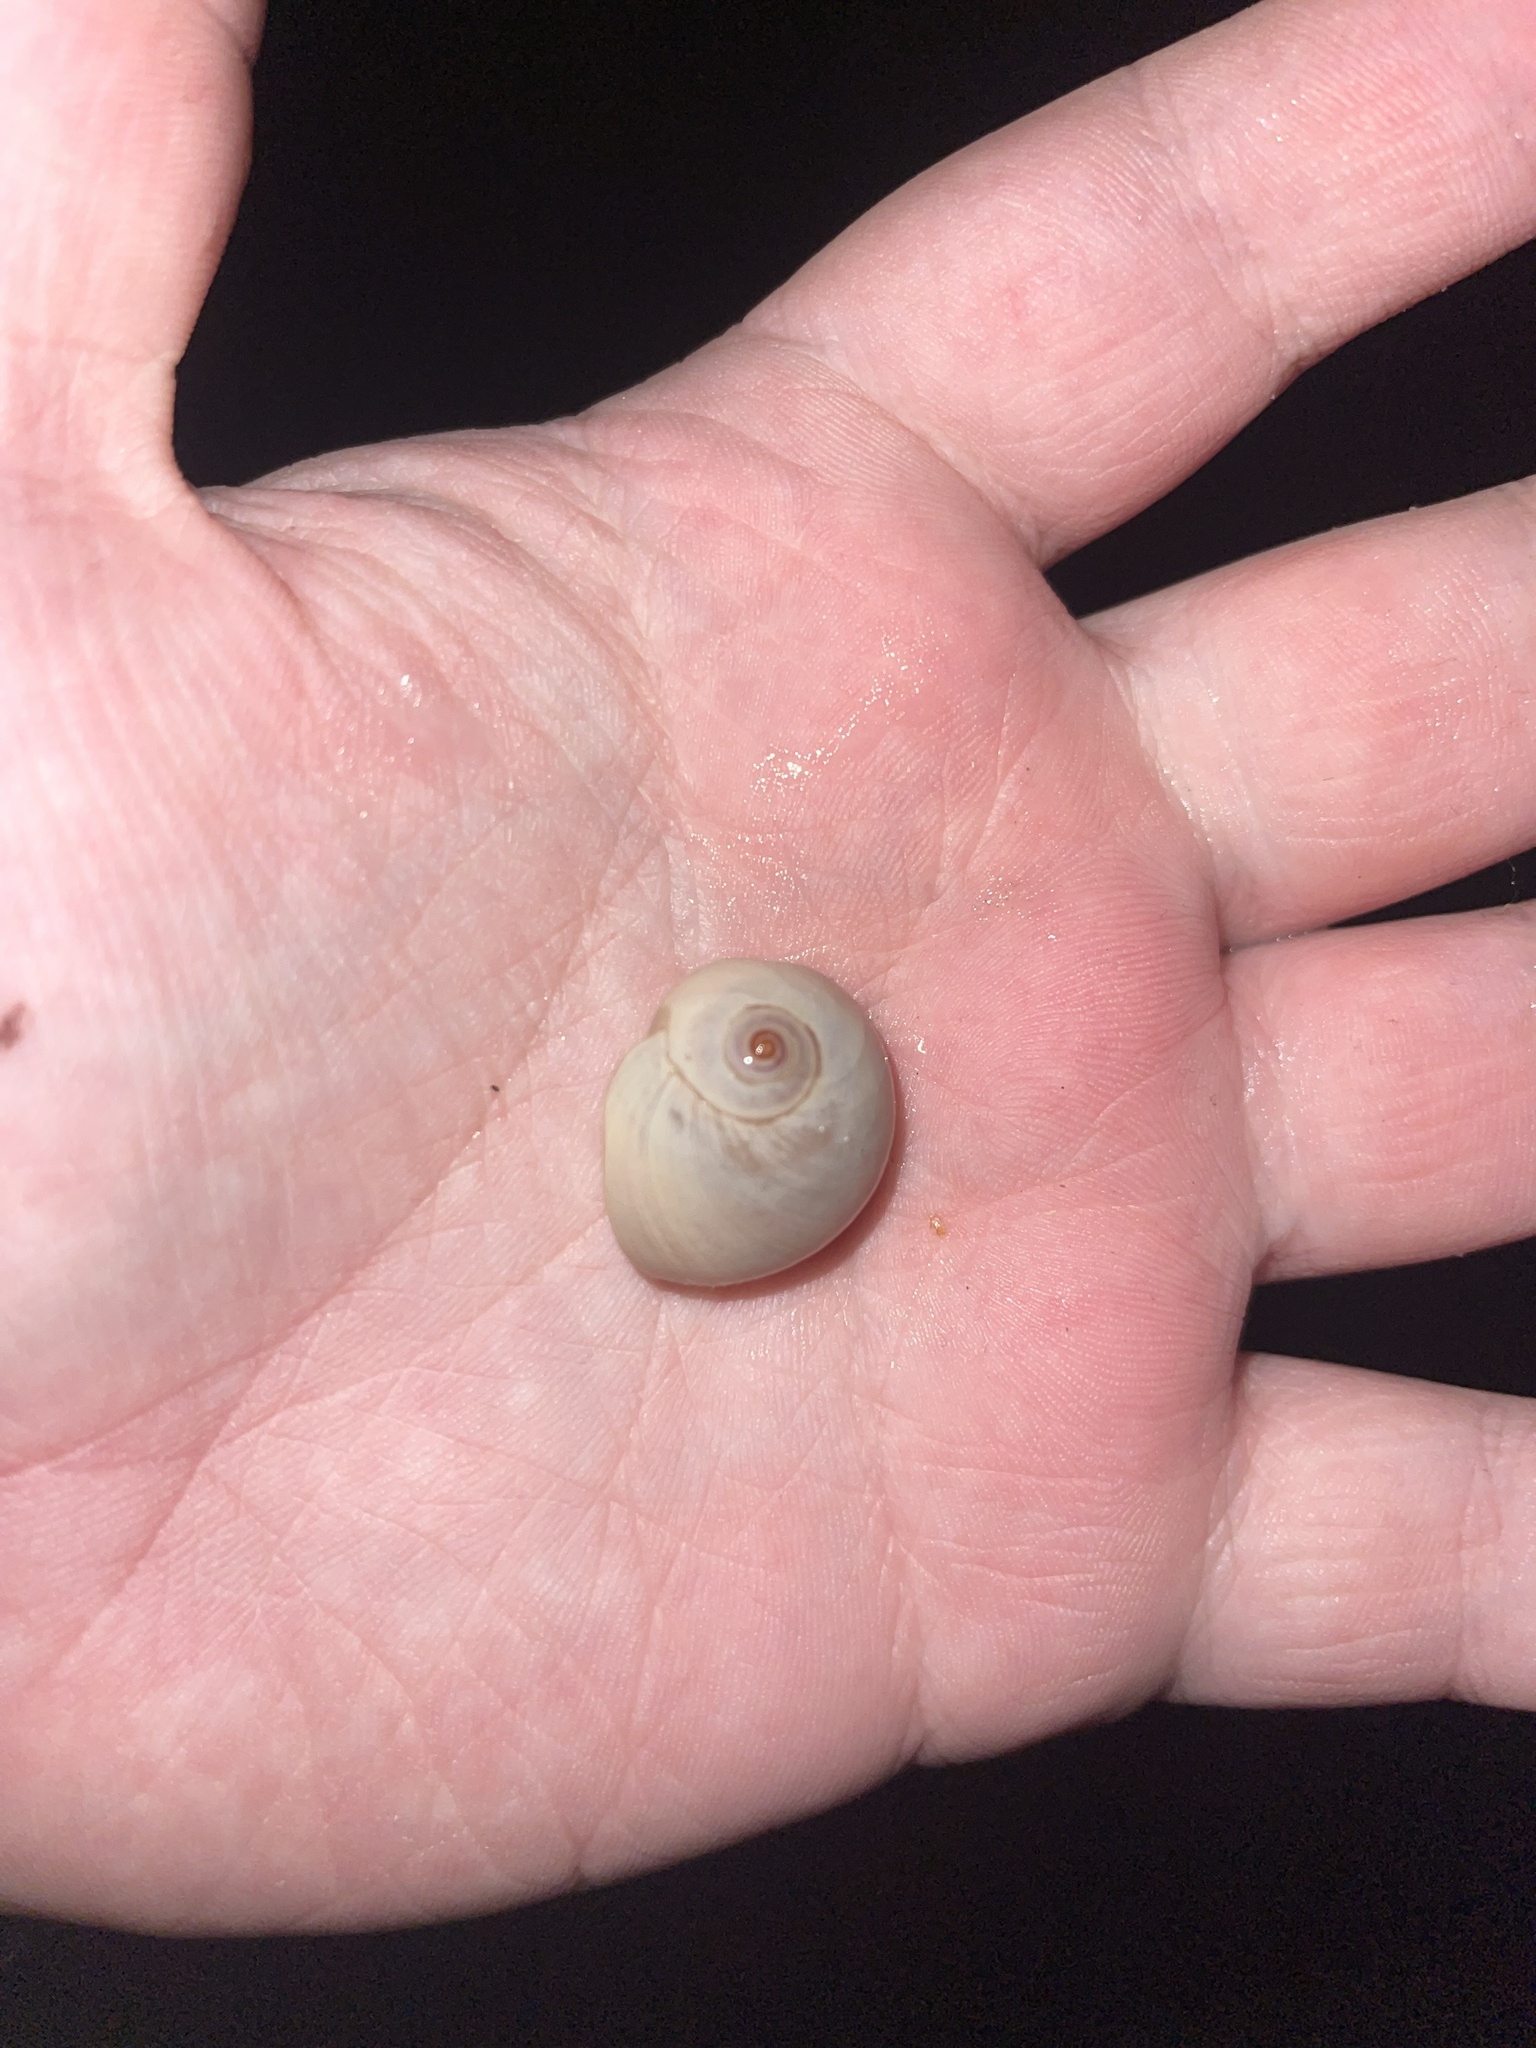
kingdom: Animalia
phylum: Mollusca
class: Gastropoda
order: Littorinimorpha
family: Naticidae
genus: Neverita
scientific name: Neverita duplicata
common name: Lobed moonsnail
